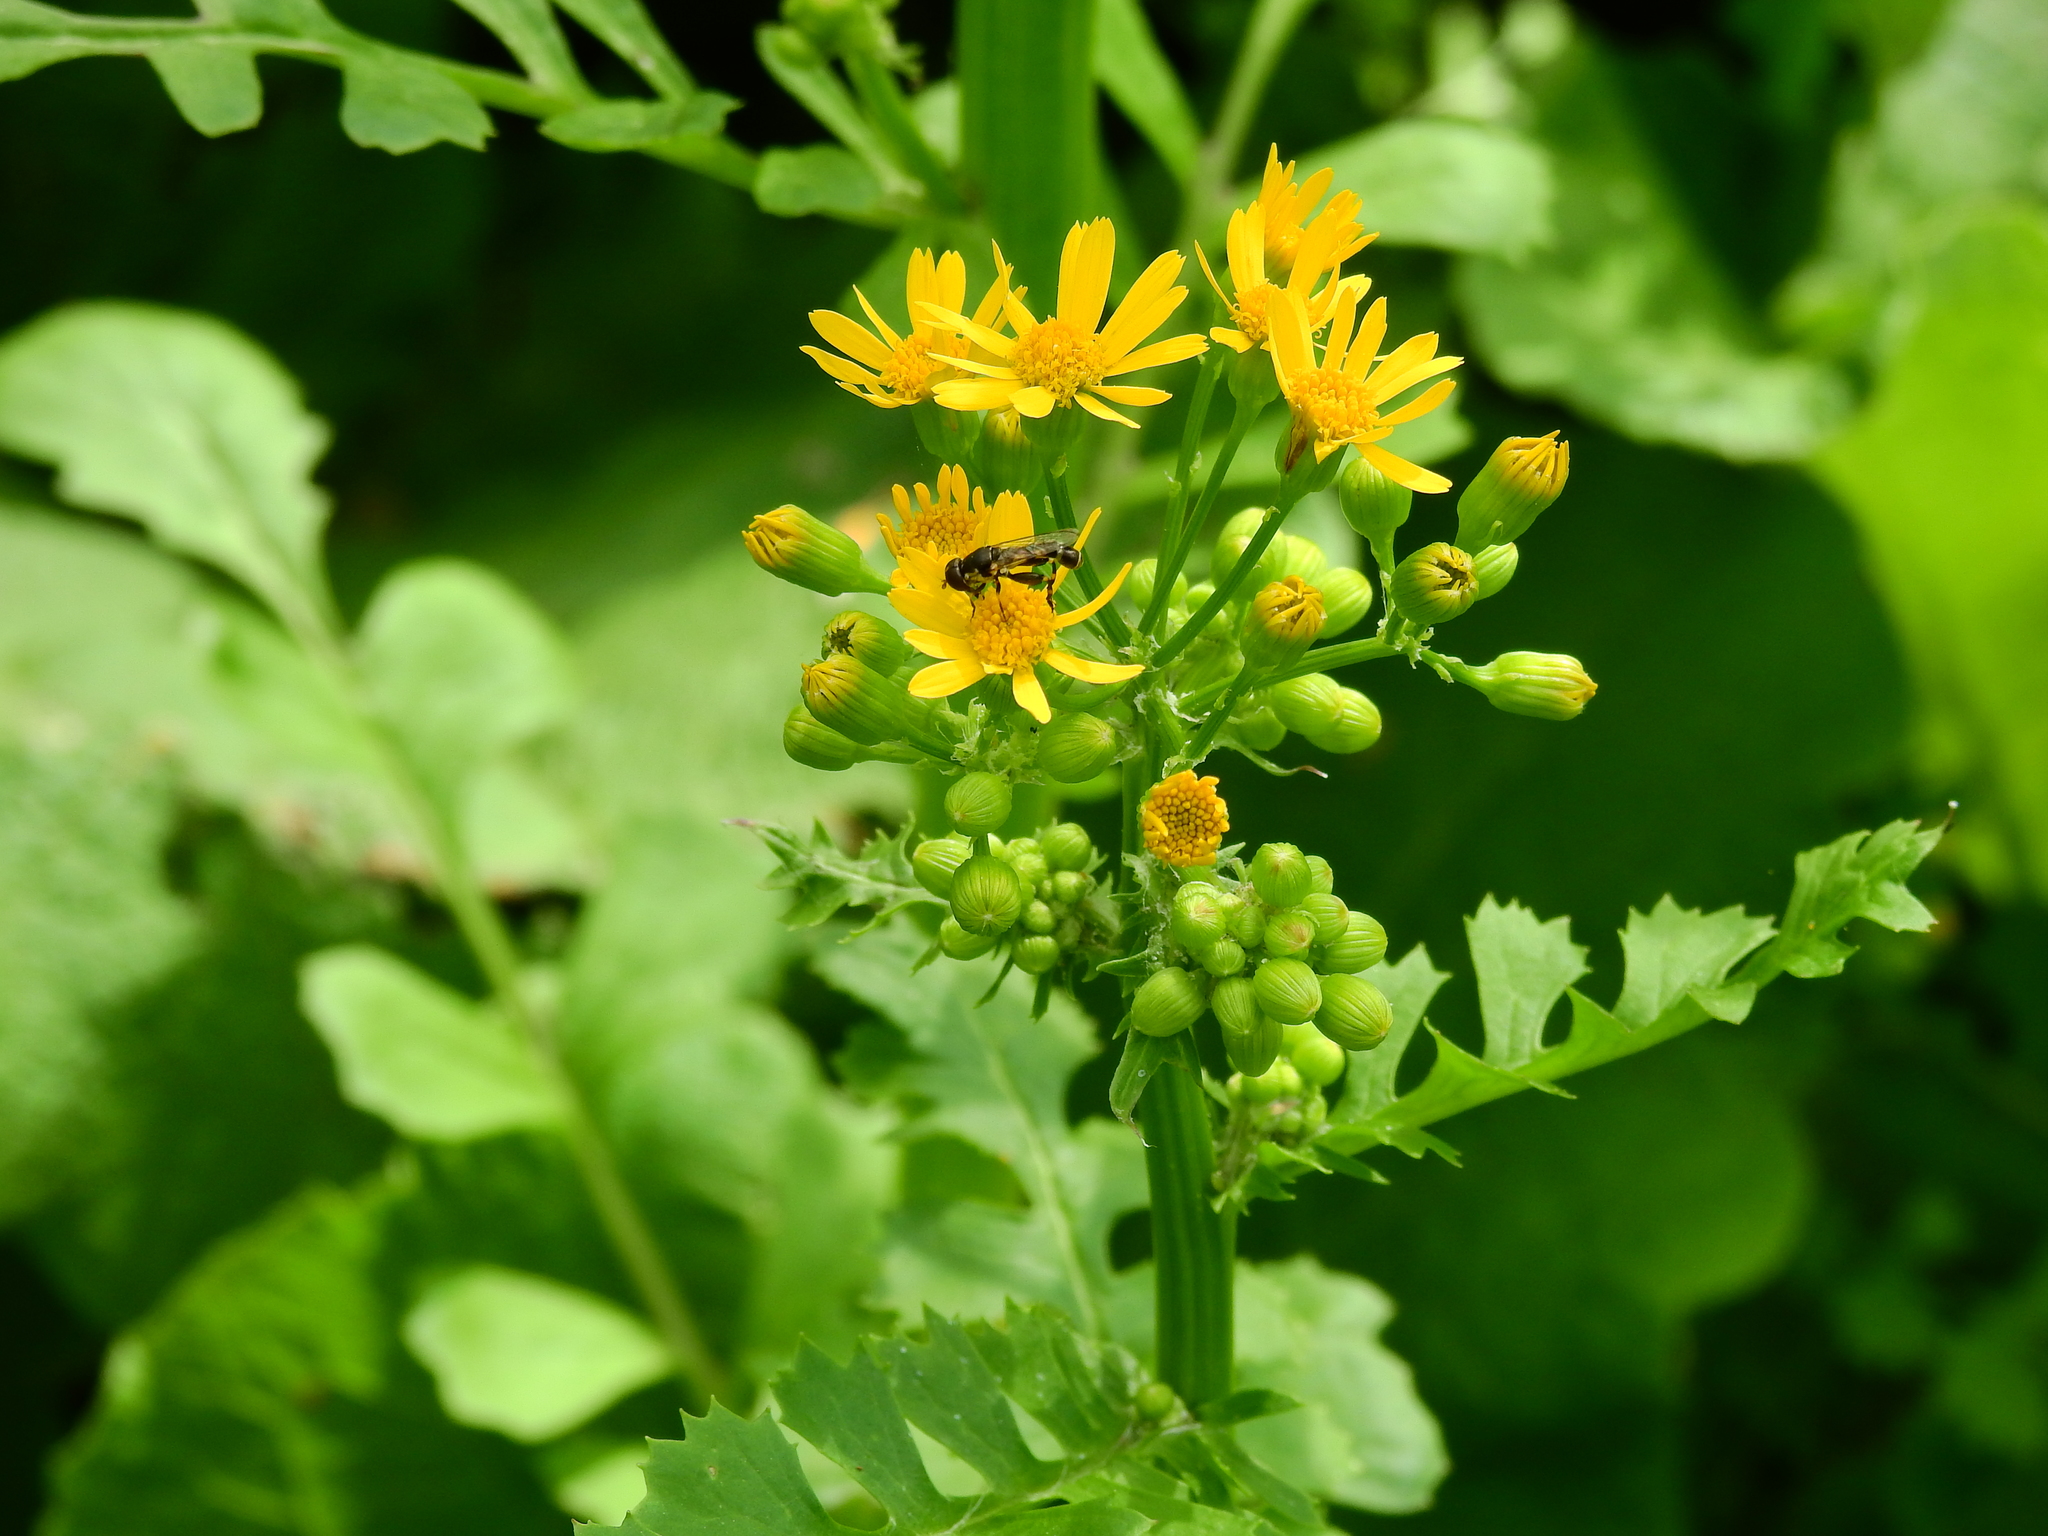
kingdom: Animalia
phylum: Arthropoda
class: Insecta
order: Diptera
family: Syrphidae
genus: Syritta
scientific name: Syritta pipiens
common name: Hover fly
